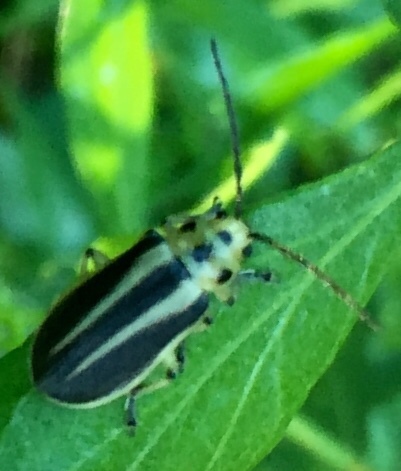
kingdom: Animalia
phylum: Arthropoda
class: Insecta
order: Coleoptera
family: Chrysomelidae
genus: Trirhabda
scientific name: Trirhabda bacharidis
